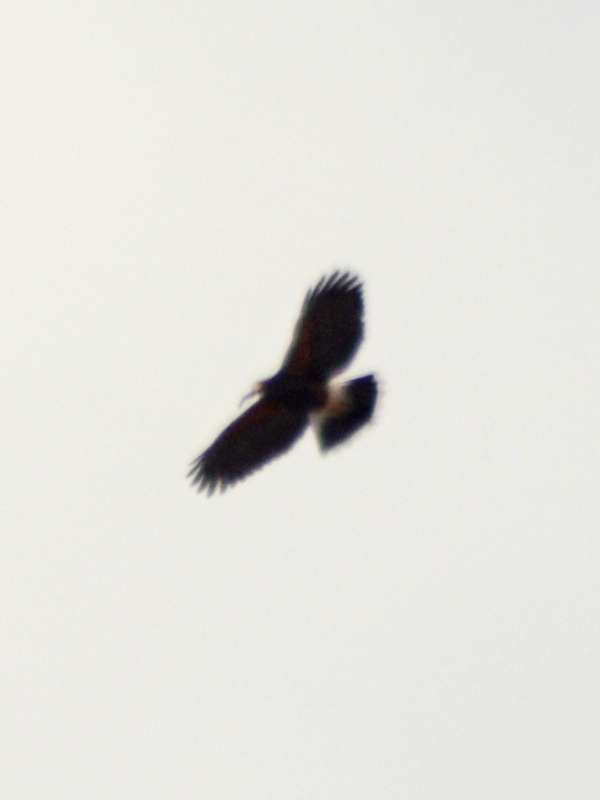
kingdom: Animalia
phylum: Chordata
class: Aves
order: Accipitriformes
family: Accipitridae
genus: Parabuteo
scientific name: Parabuteo unicinctus
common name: Harris's hawk
